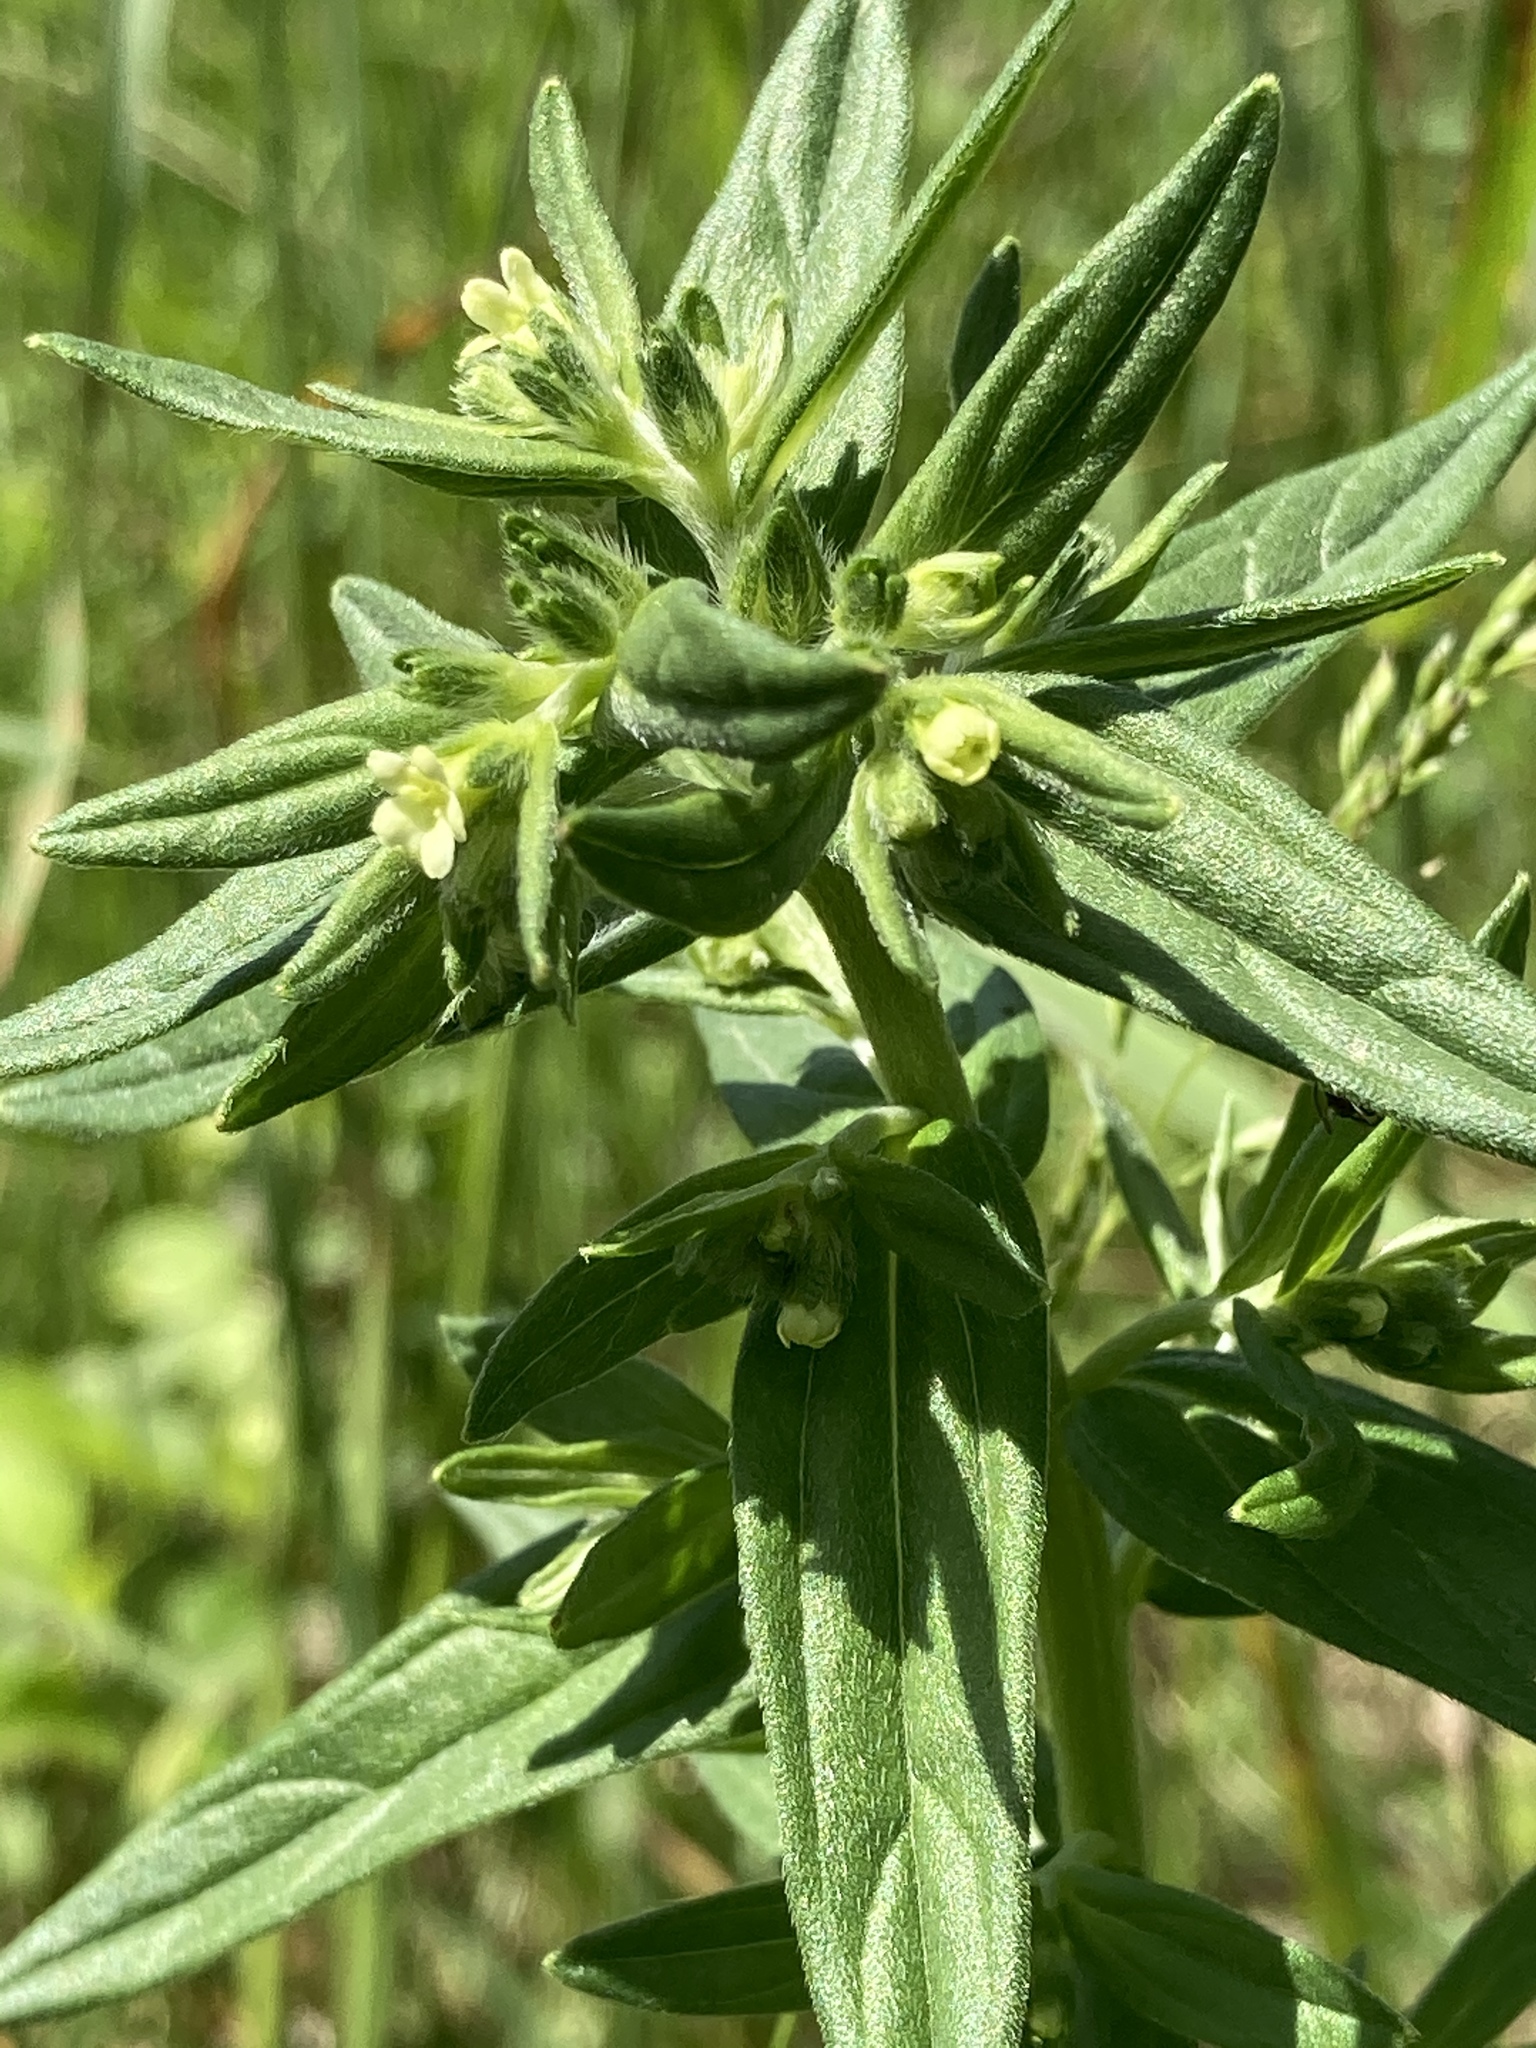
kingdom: Plantae
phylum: Tracheophyta
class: Magnoliopsida
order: Boraginales
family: Boraginaceae
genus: Lithospermum
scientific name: Lithospermum officinale
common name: Common gromwell
